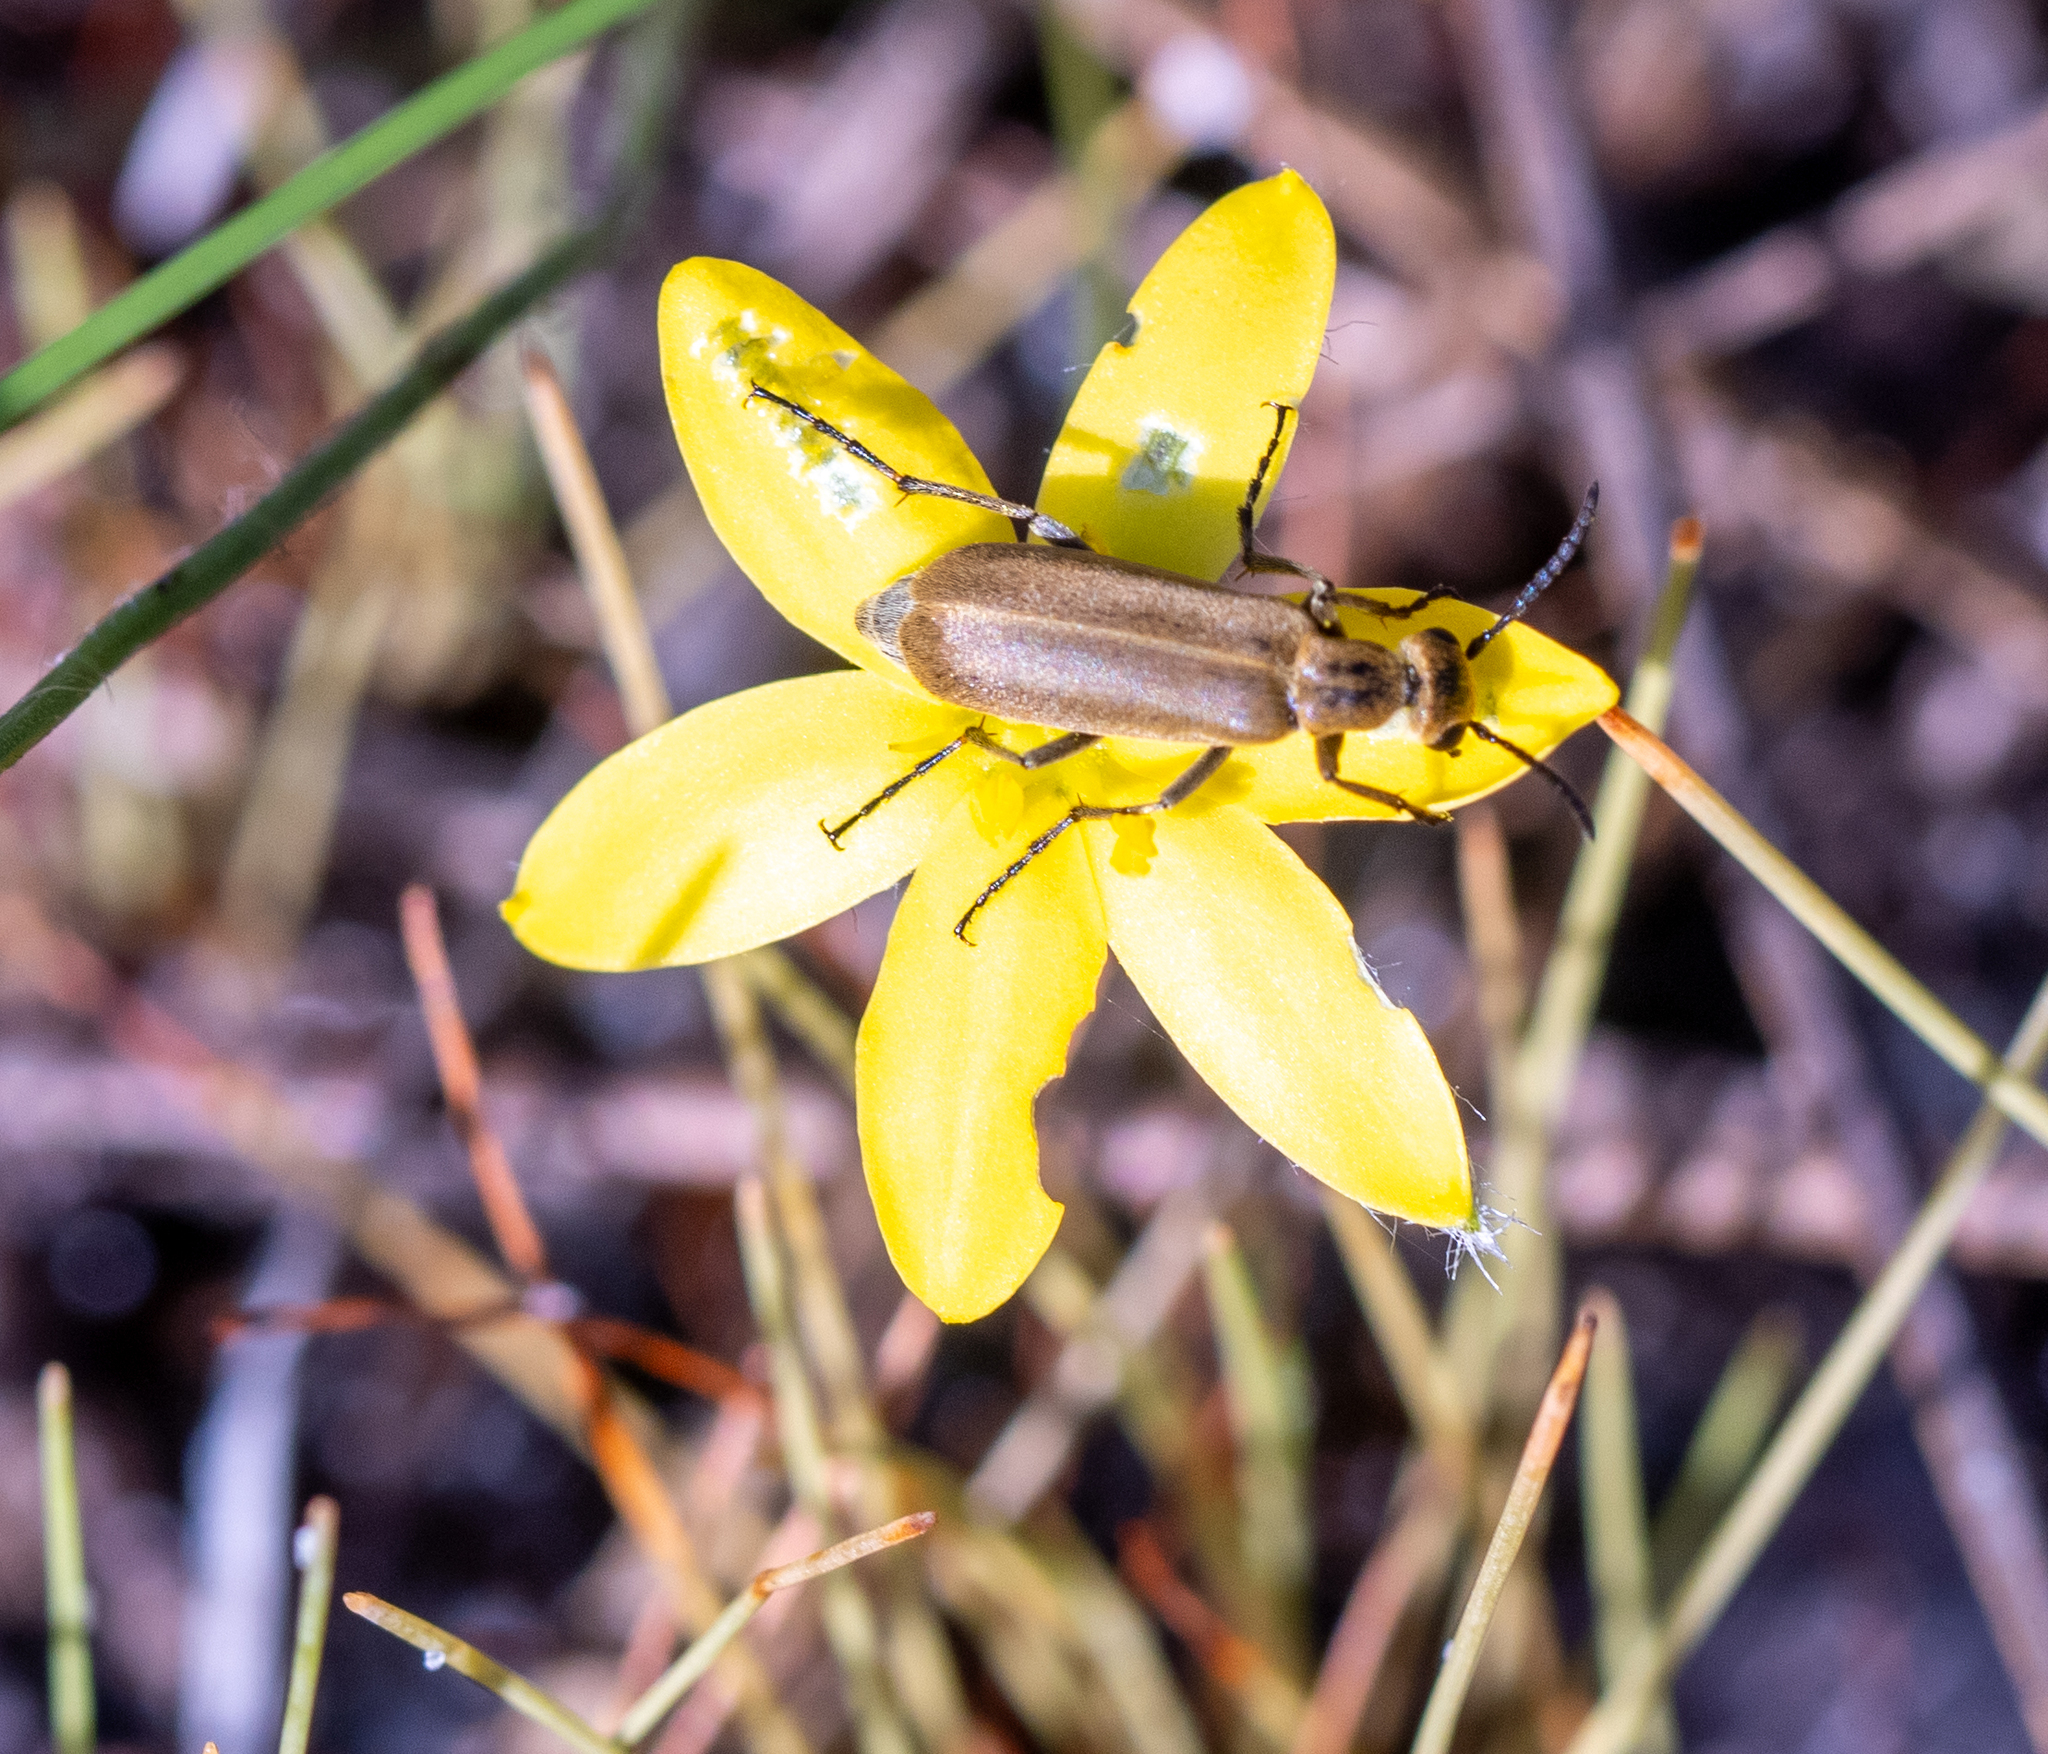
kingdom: Animalia
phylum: Arthropoda
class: Insecta
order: Coleoptera
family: Meloidae
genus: Epicauta
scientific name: Epicauta strigosa
